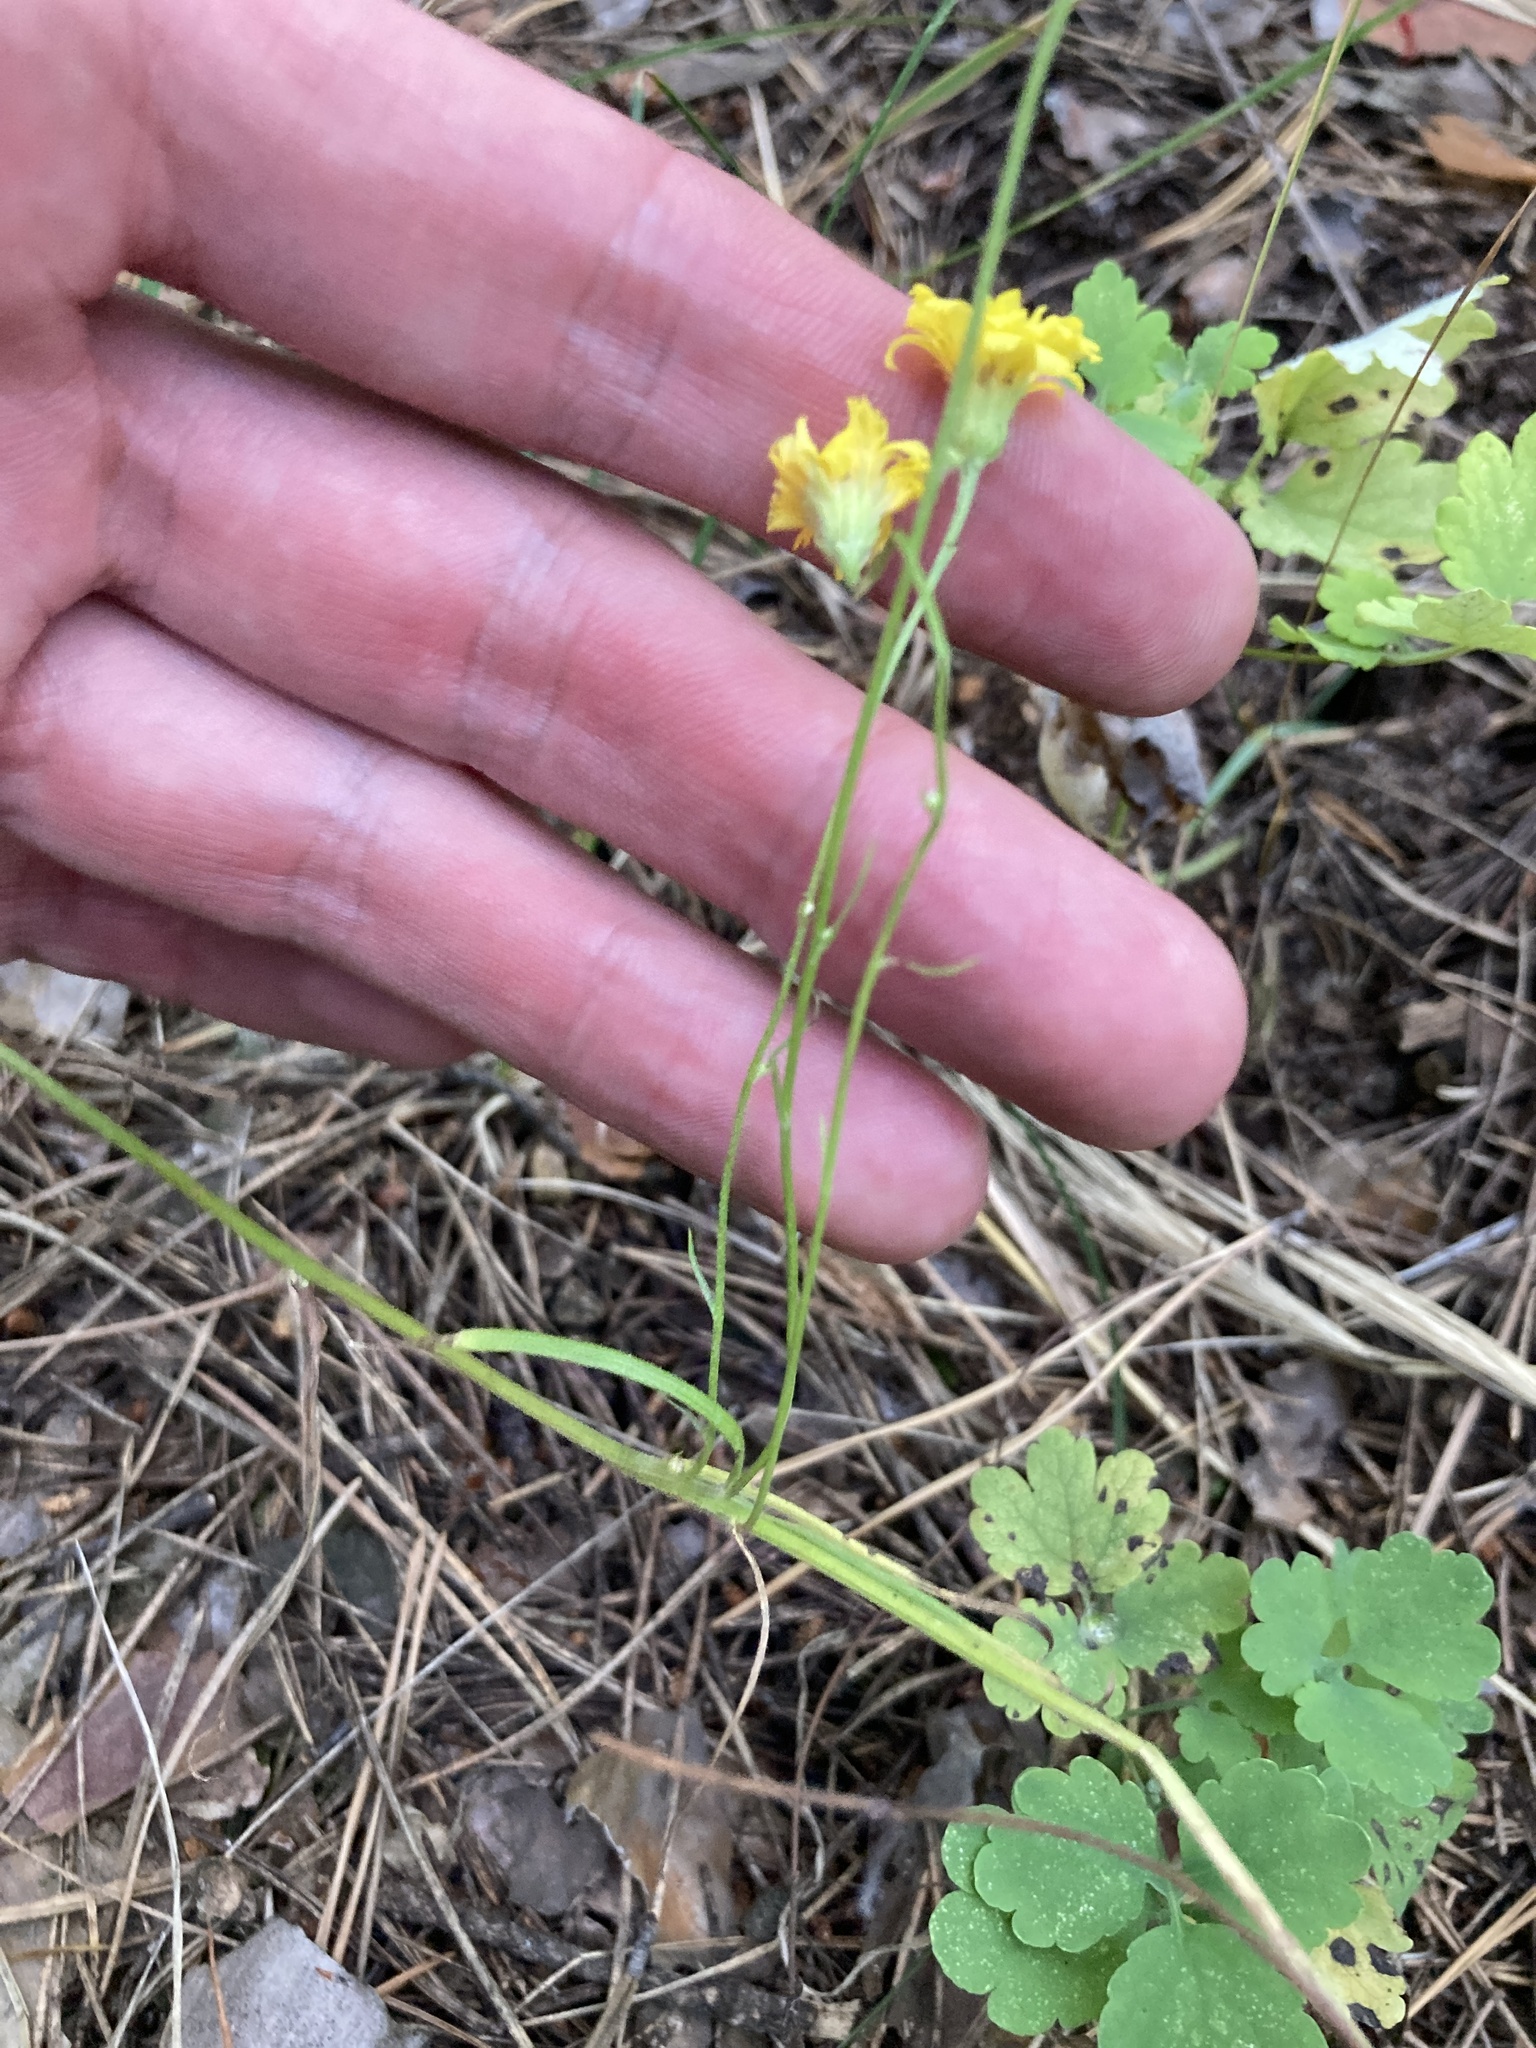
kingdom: Plantae
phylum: Tracheophyta
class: Magnoliopsida
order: Asterales
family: Asteraceae
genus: Crepis
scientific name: Crepis tectorum
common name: Narrow-leaved hawk's-beard
